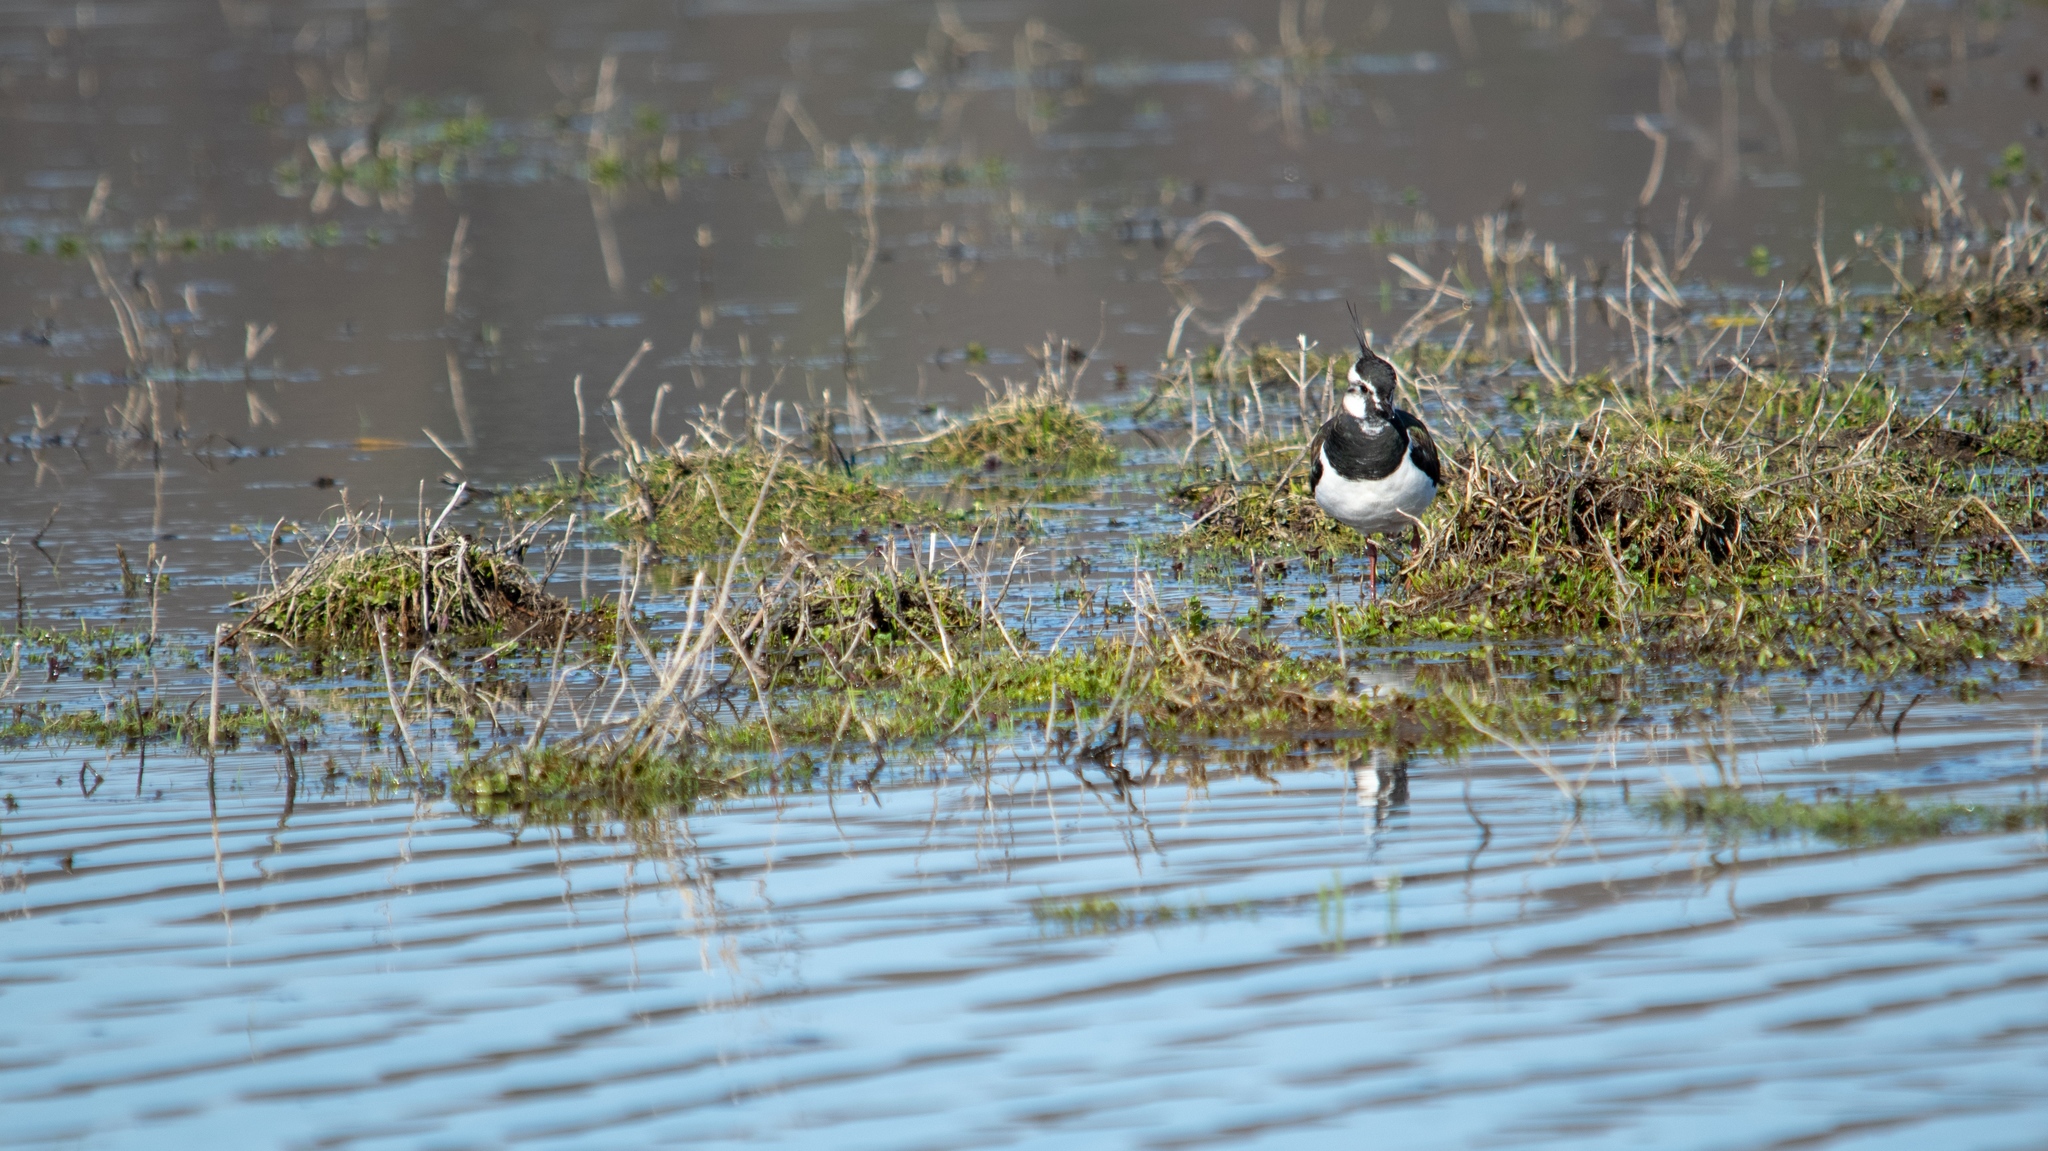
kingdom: Animalia
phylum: Chordata
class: Aves
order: Charadriiformes
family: Charadriidae
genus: Vanellus
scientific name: Vanellus vanellus
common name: Northern lapwing
